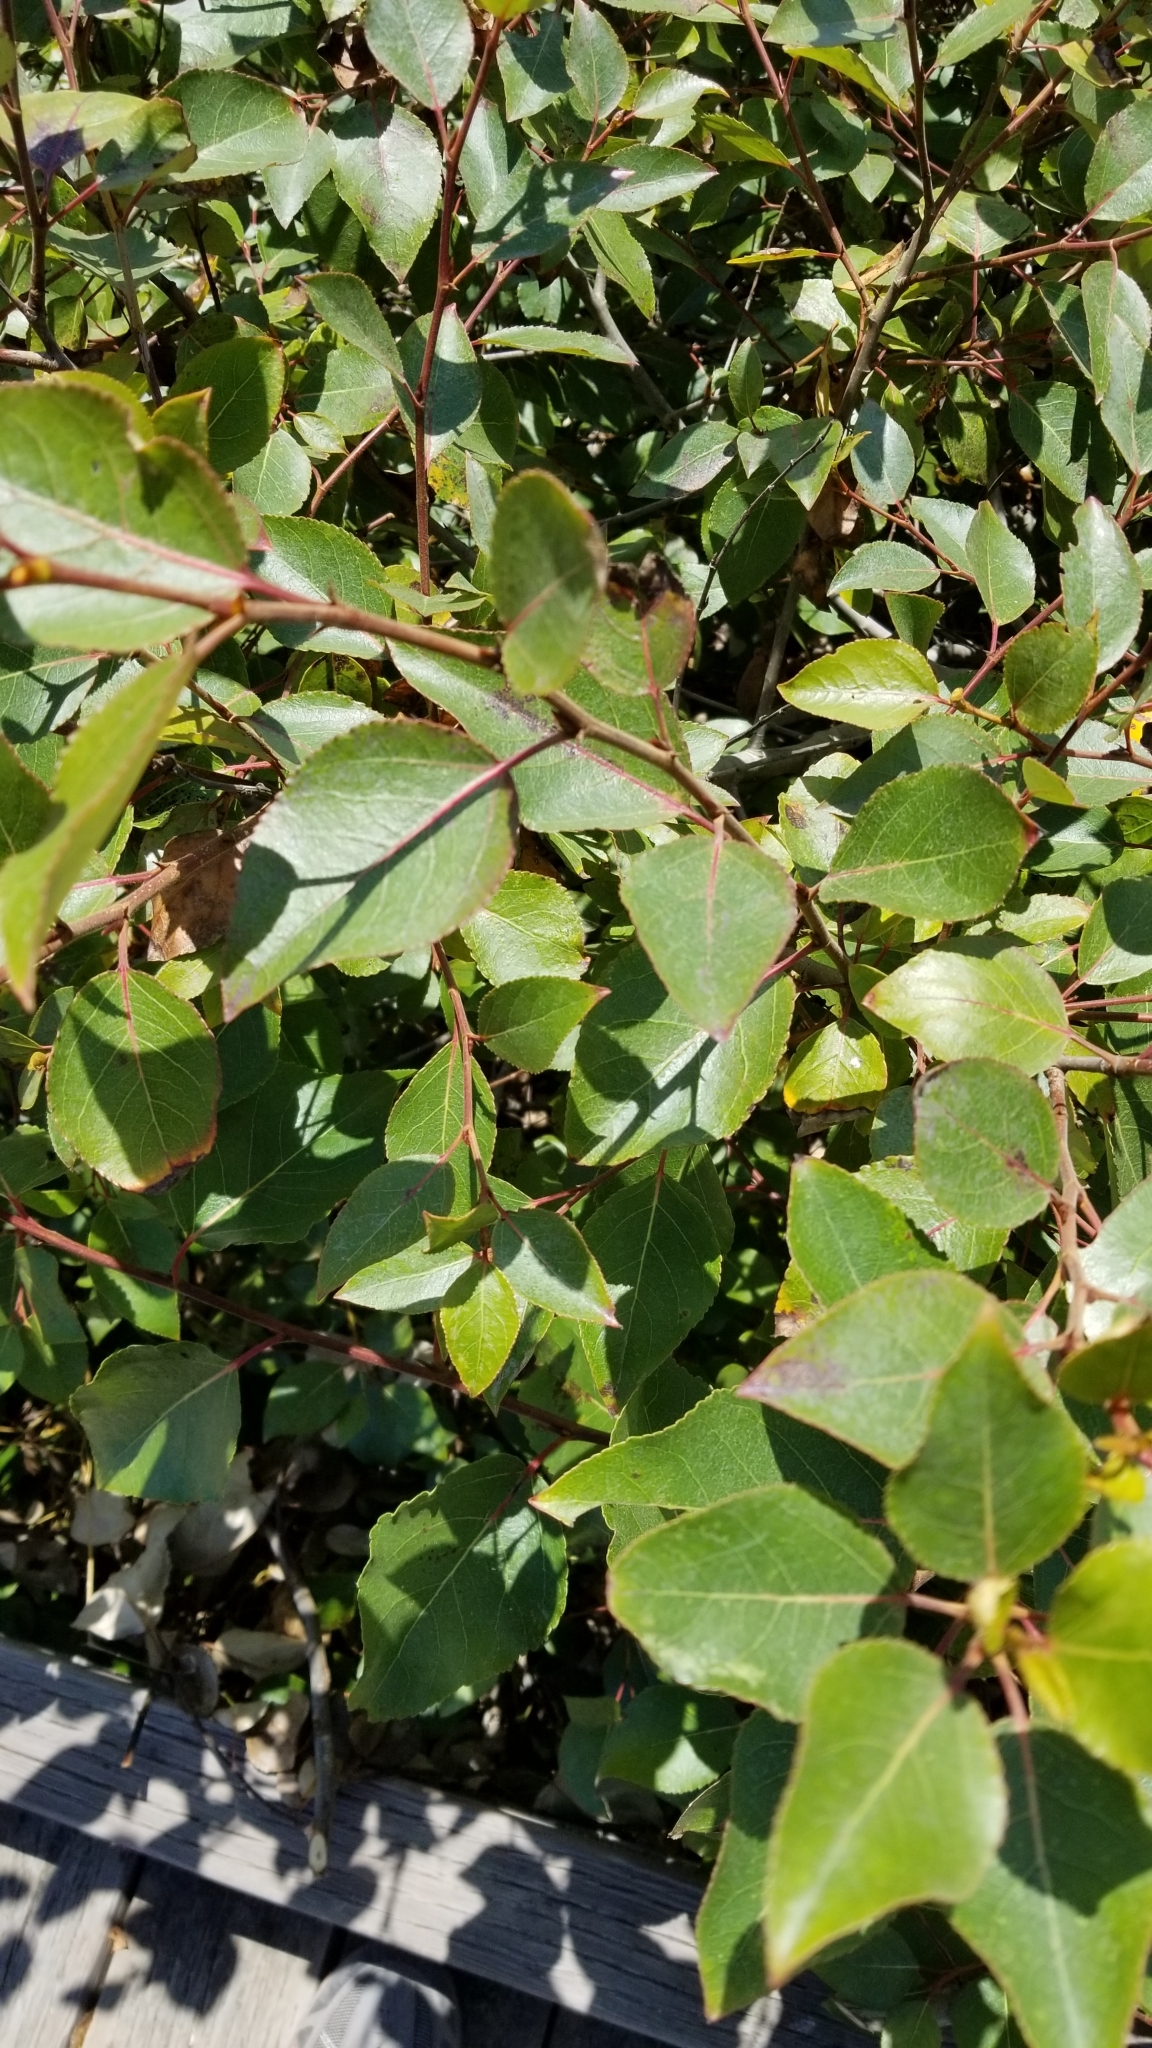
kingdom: Plantae
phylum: Tracheophyta
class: Magnoliopsida
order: Malpighiales
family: Salicaceae
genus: Populus
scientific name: Populus trichocarpa
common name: Black cottonwood
